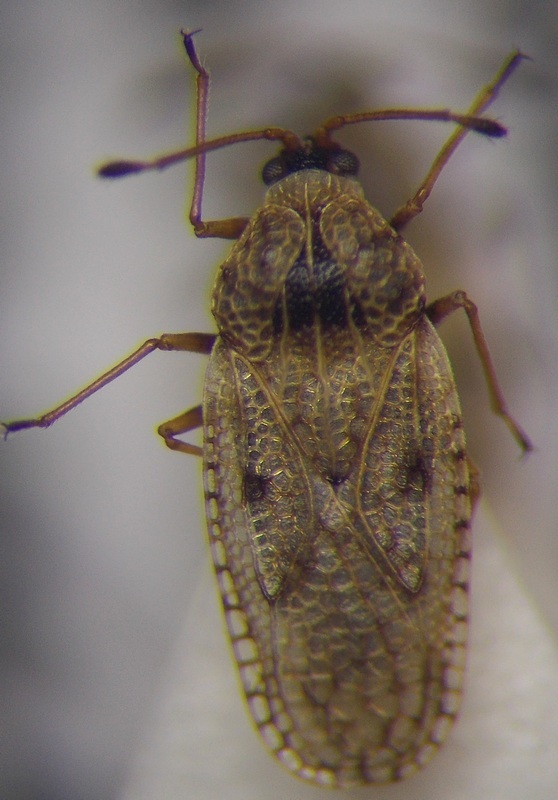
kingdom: Animalia
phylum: Arthropoda
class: Insecta
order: Hemiptera
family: Tingidae
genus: Dictyla
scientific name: Dictyla nassata
